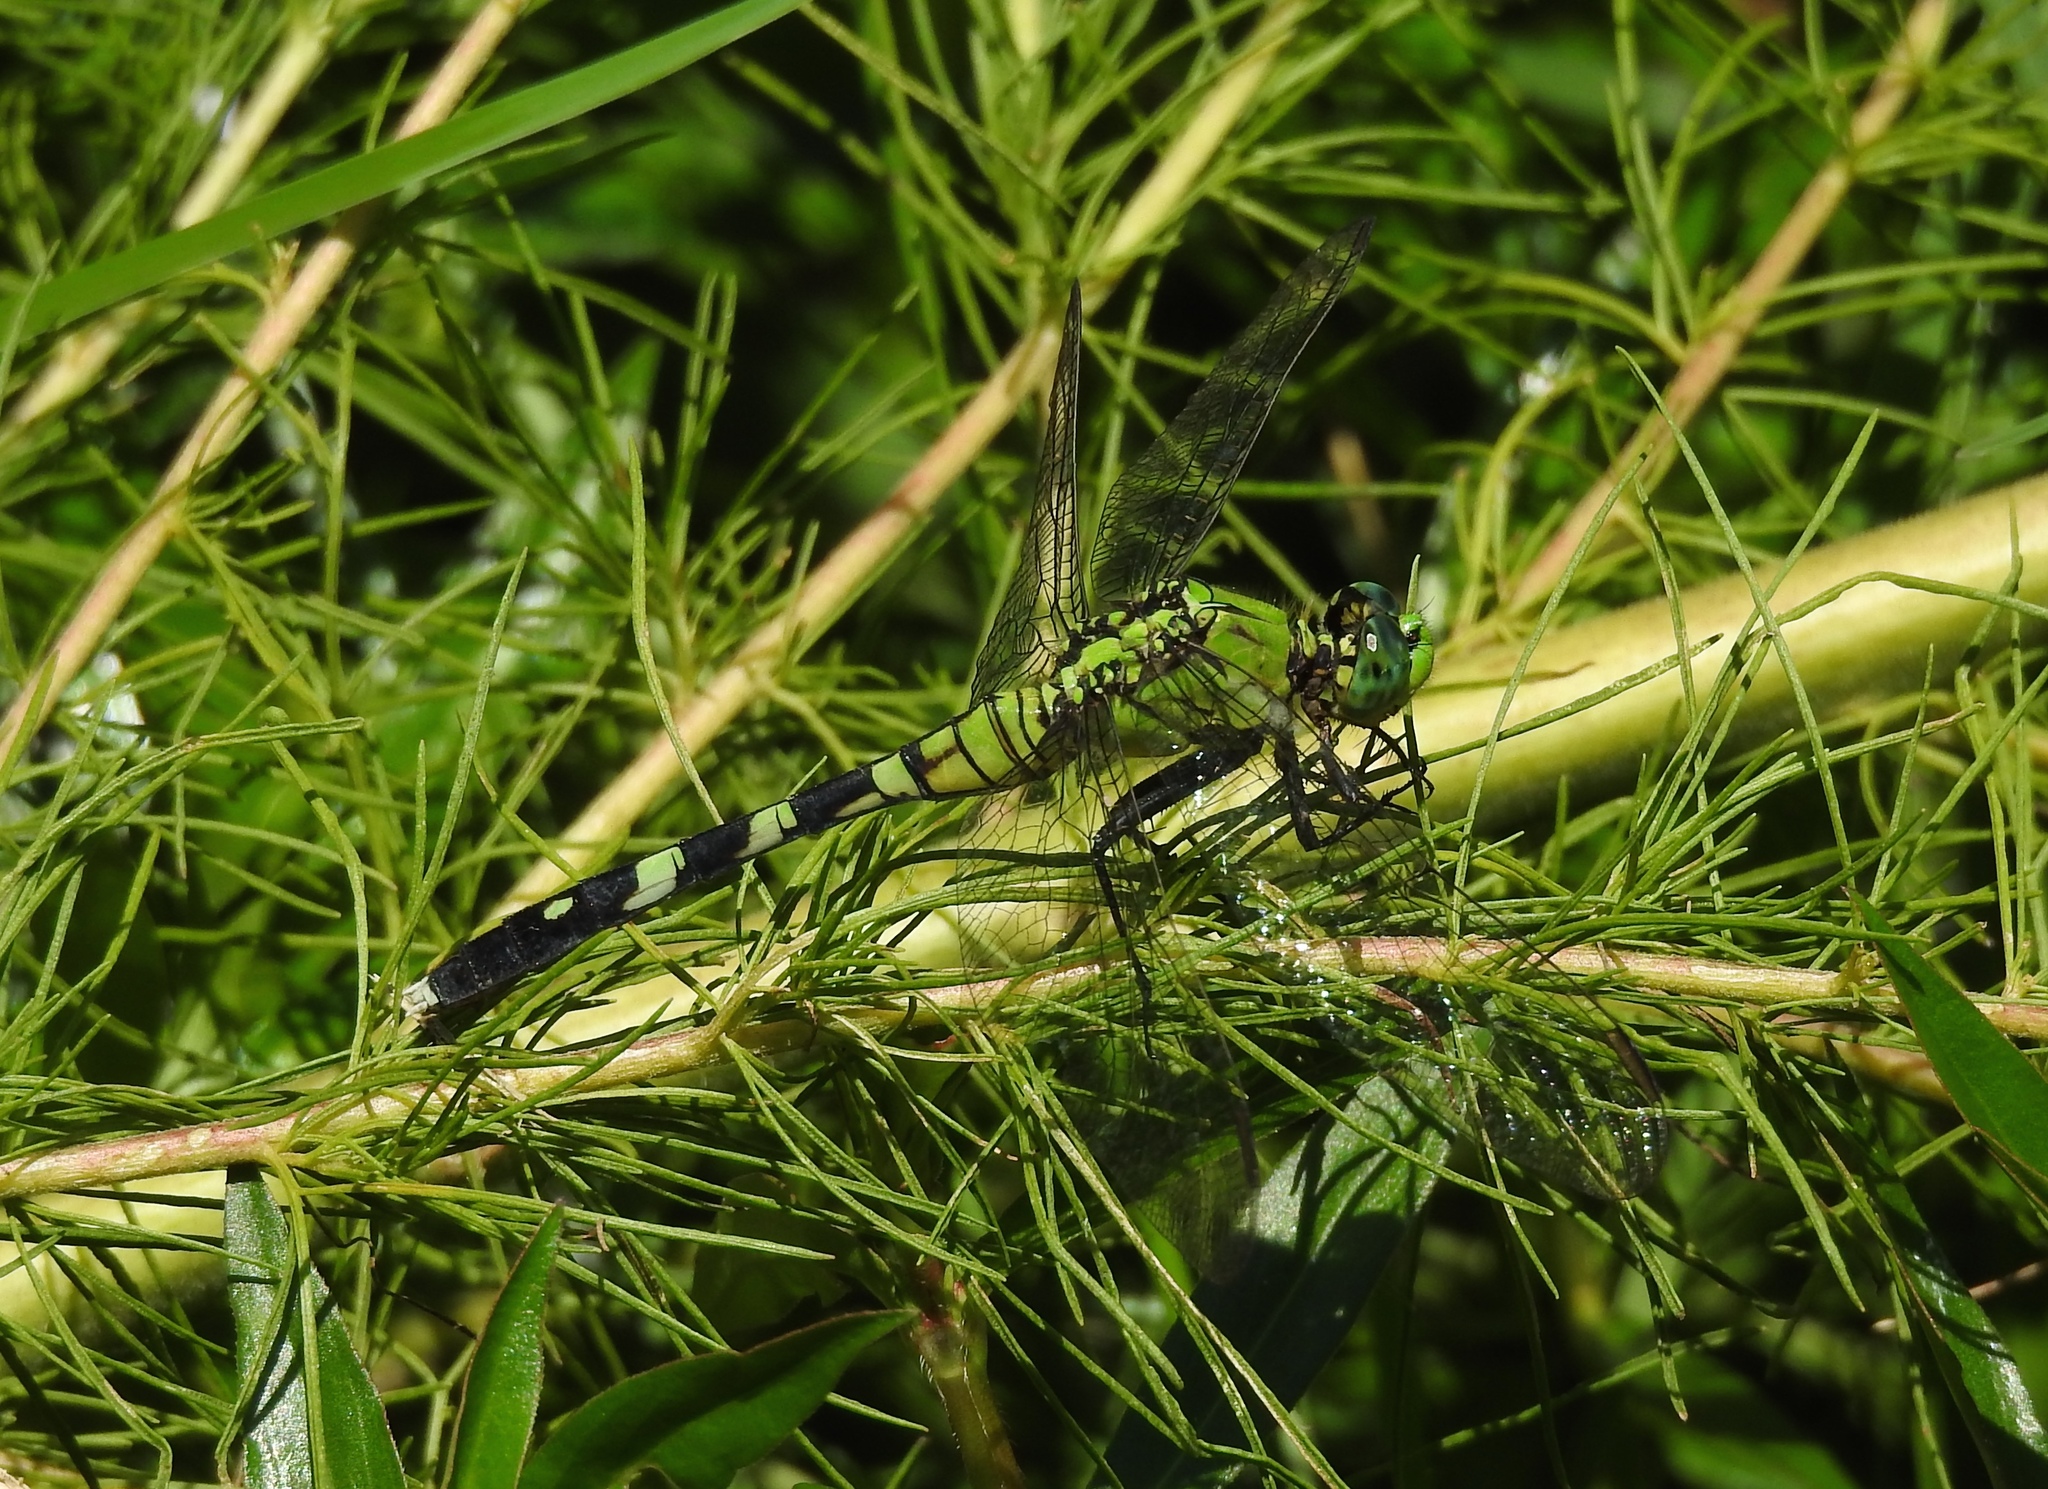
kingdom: Animalia
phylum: Arthropoda
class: Insecta
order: Odonata
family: Libellulidae
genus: Erythemis
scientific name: Erythemis simplicicollis
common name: Eastern pondhawk
